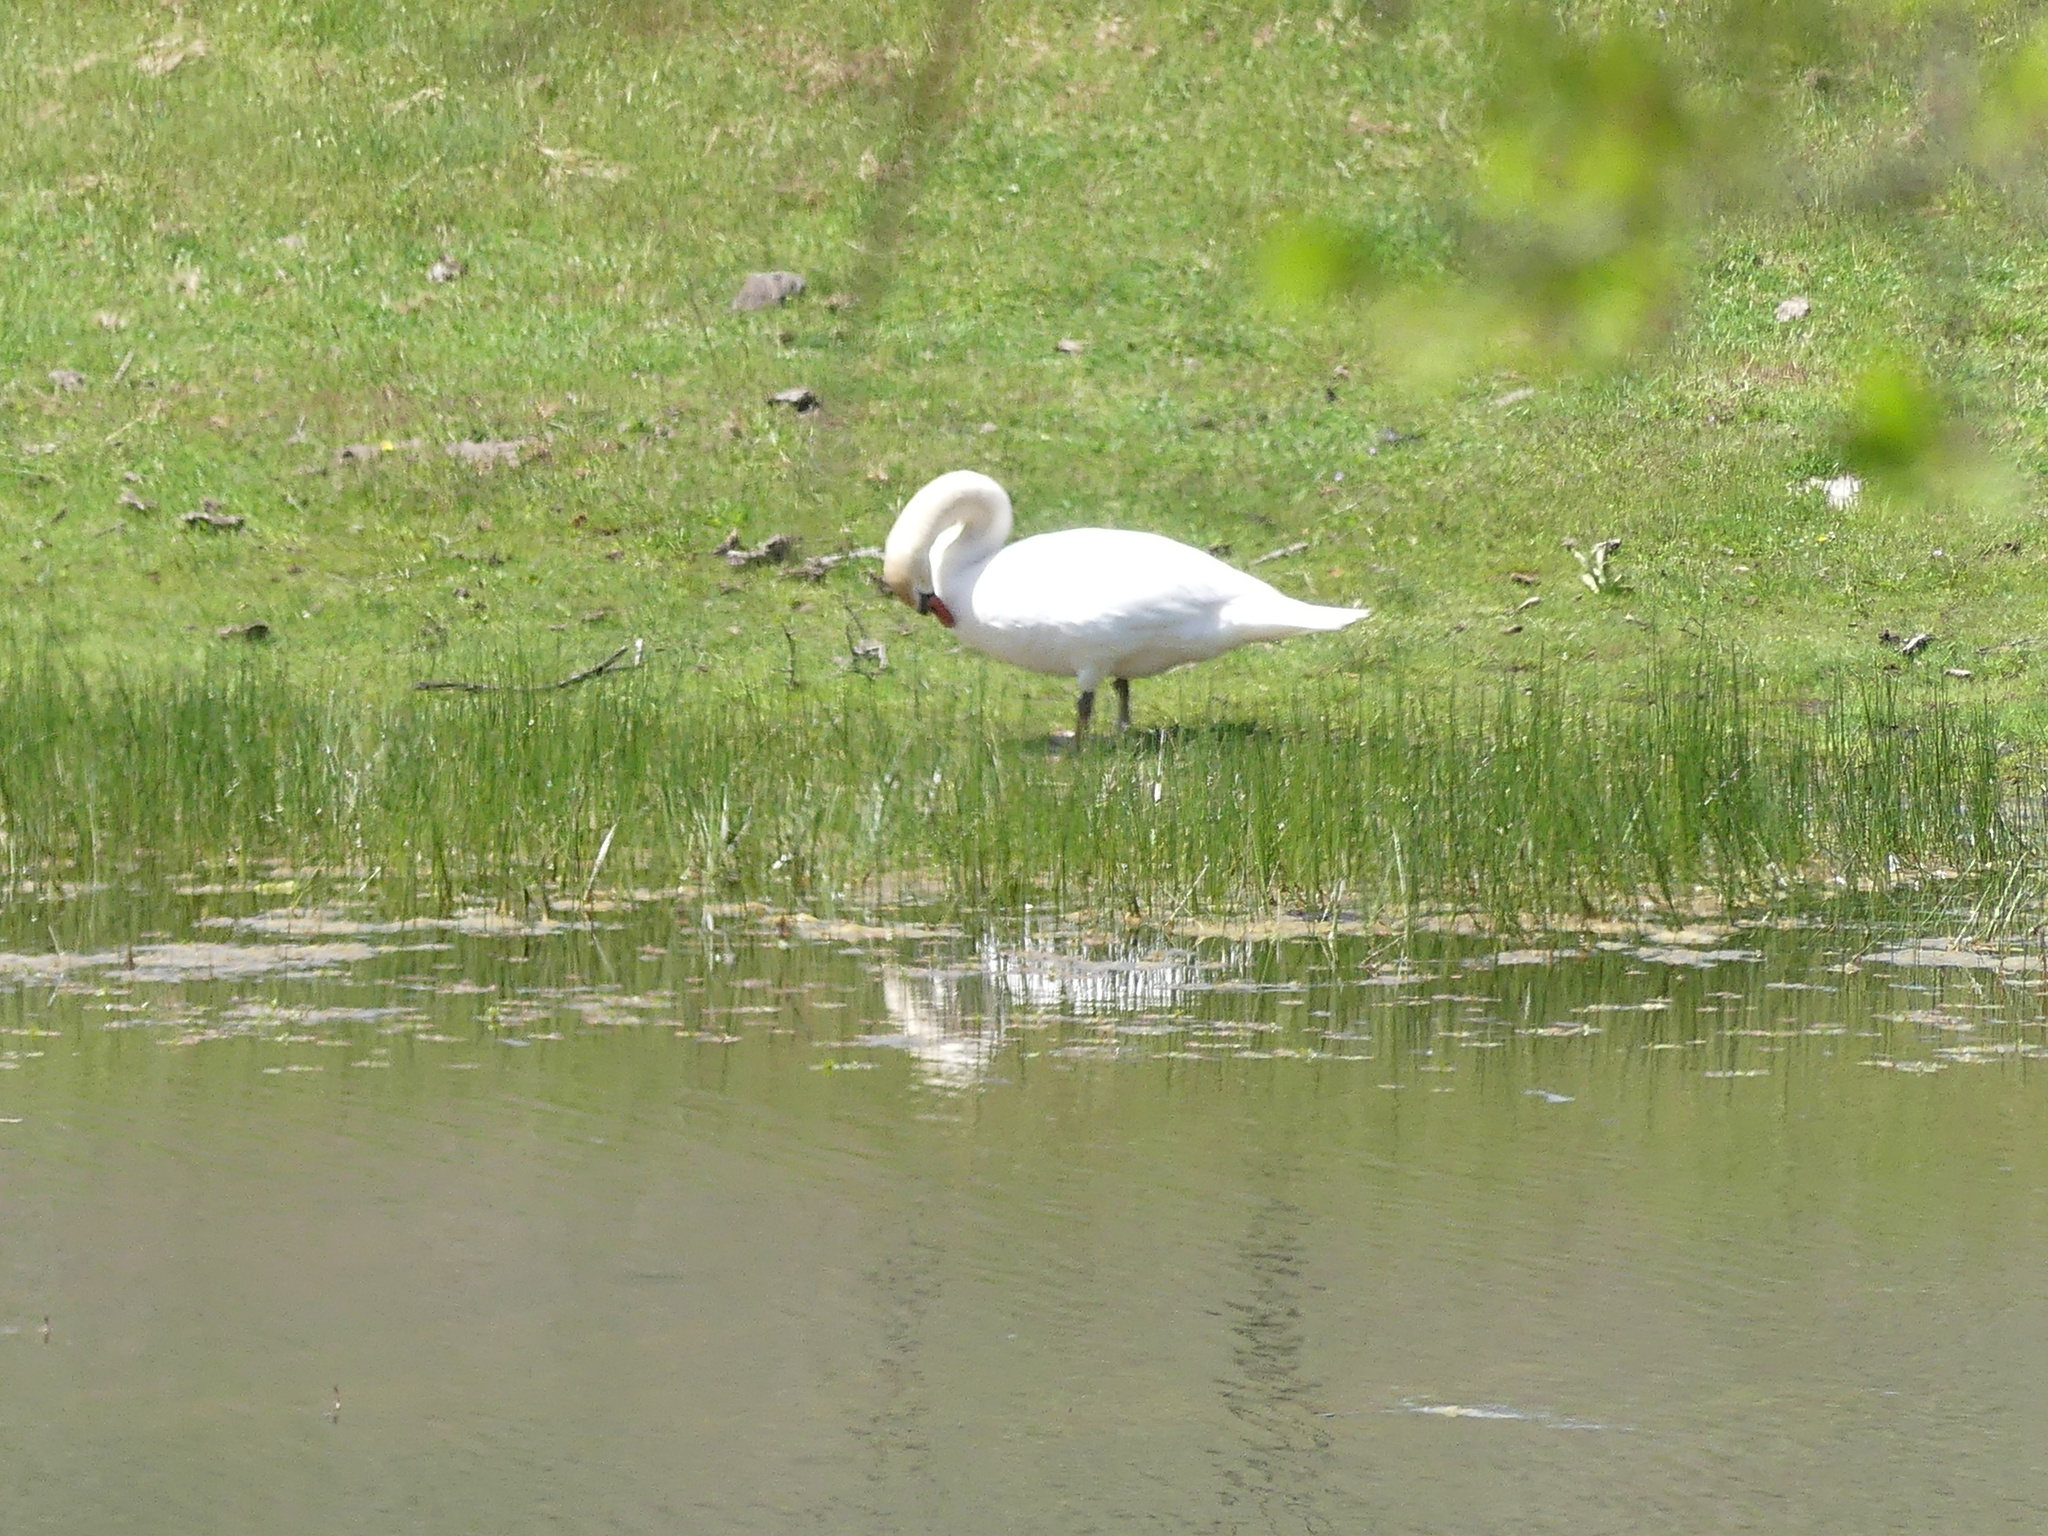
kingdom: Animalia
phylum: Chordata
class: Aves
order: Anseriformes
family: Anatidae
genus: Cygnus
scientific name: Cygnus olor
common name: Mute swan
